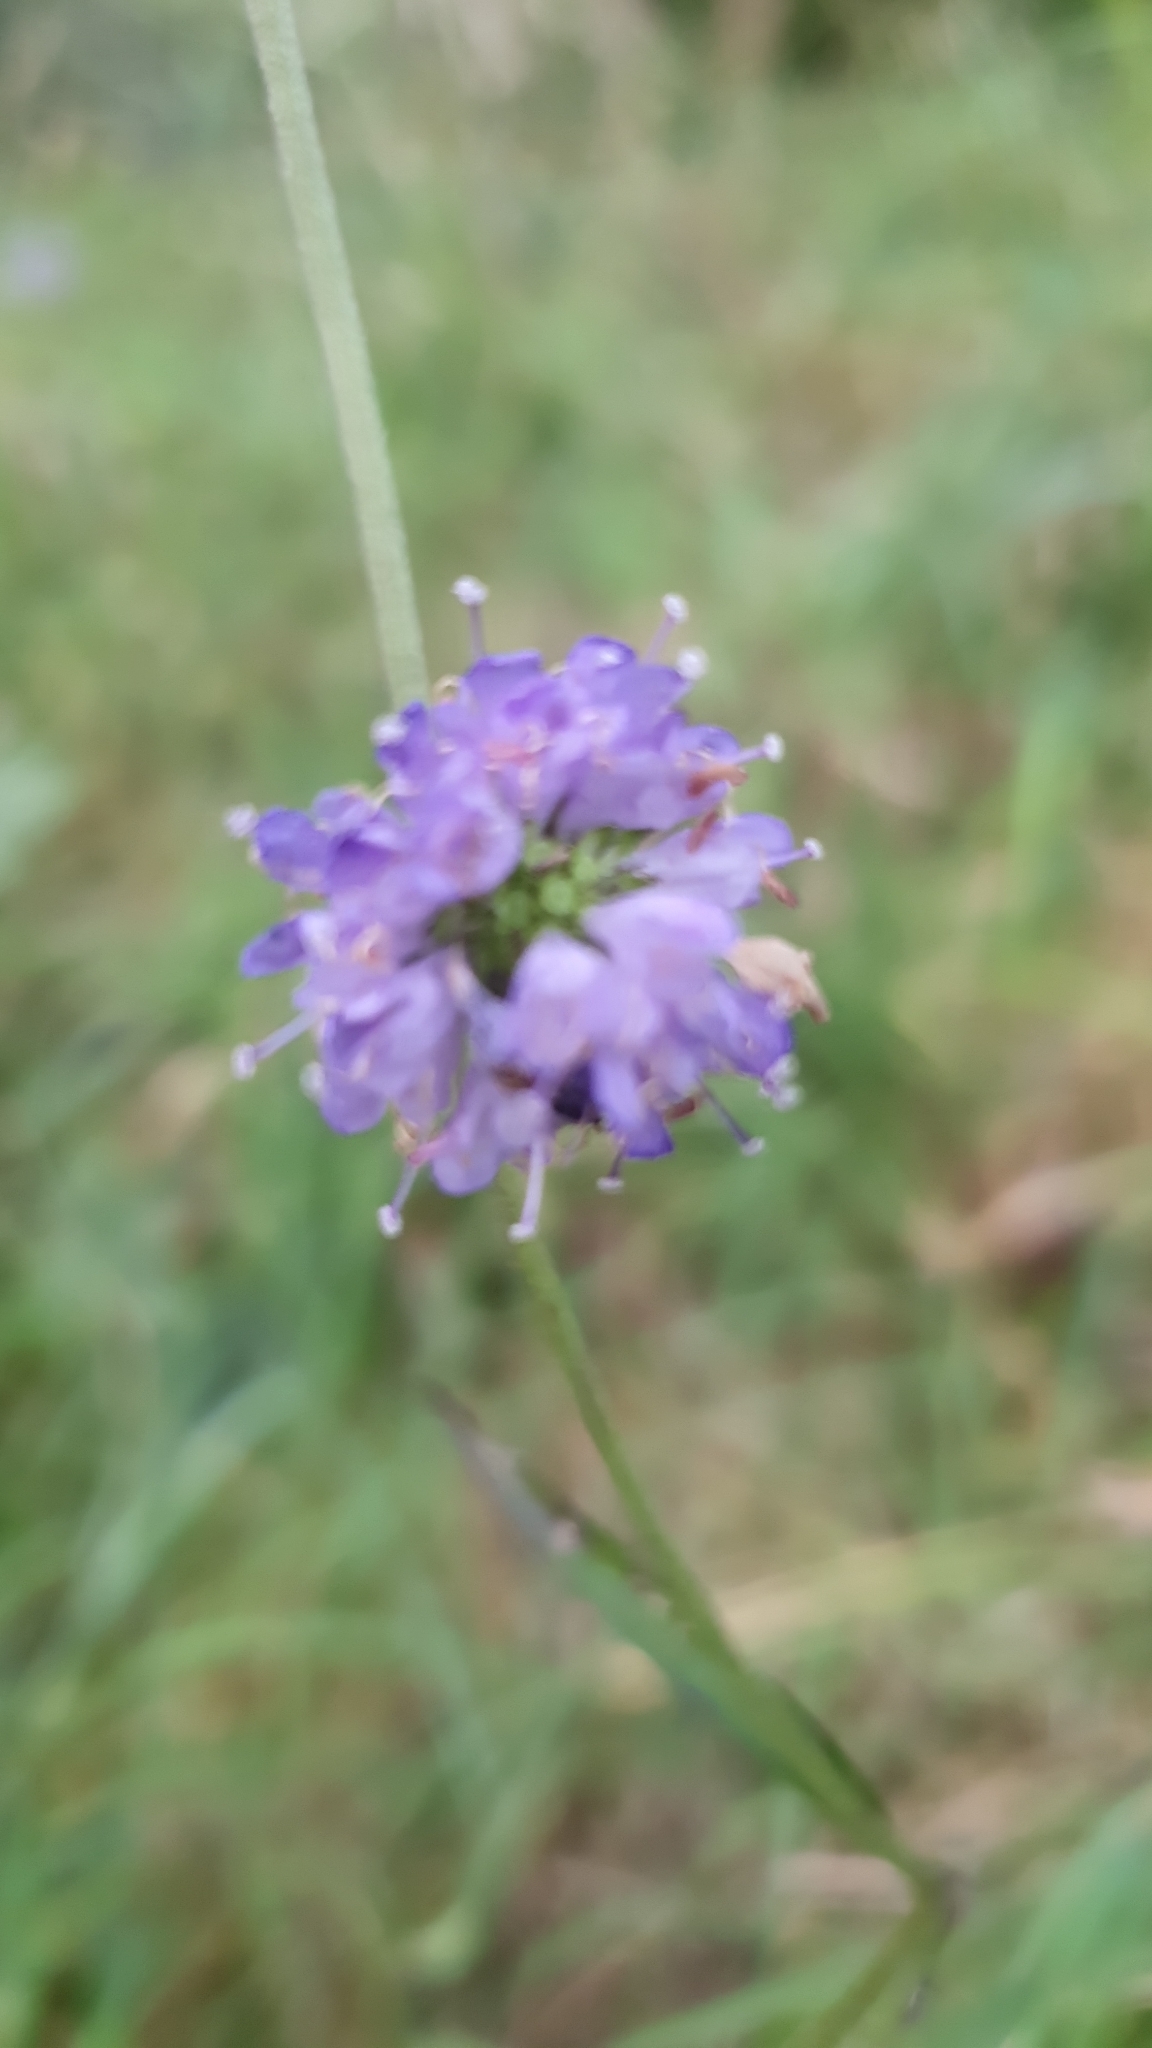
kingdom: Plantae
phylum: Tracheophyta
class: Magnoliopsida
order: Dipsacales
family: Caprifoliaceae
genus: Succisa
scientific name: Succisa pratensis
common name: Devil's-bit
